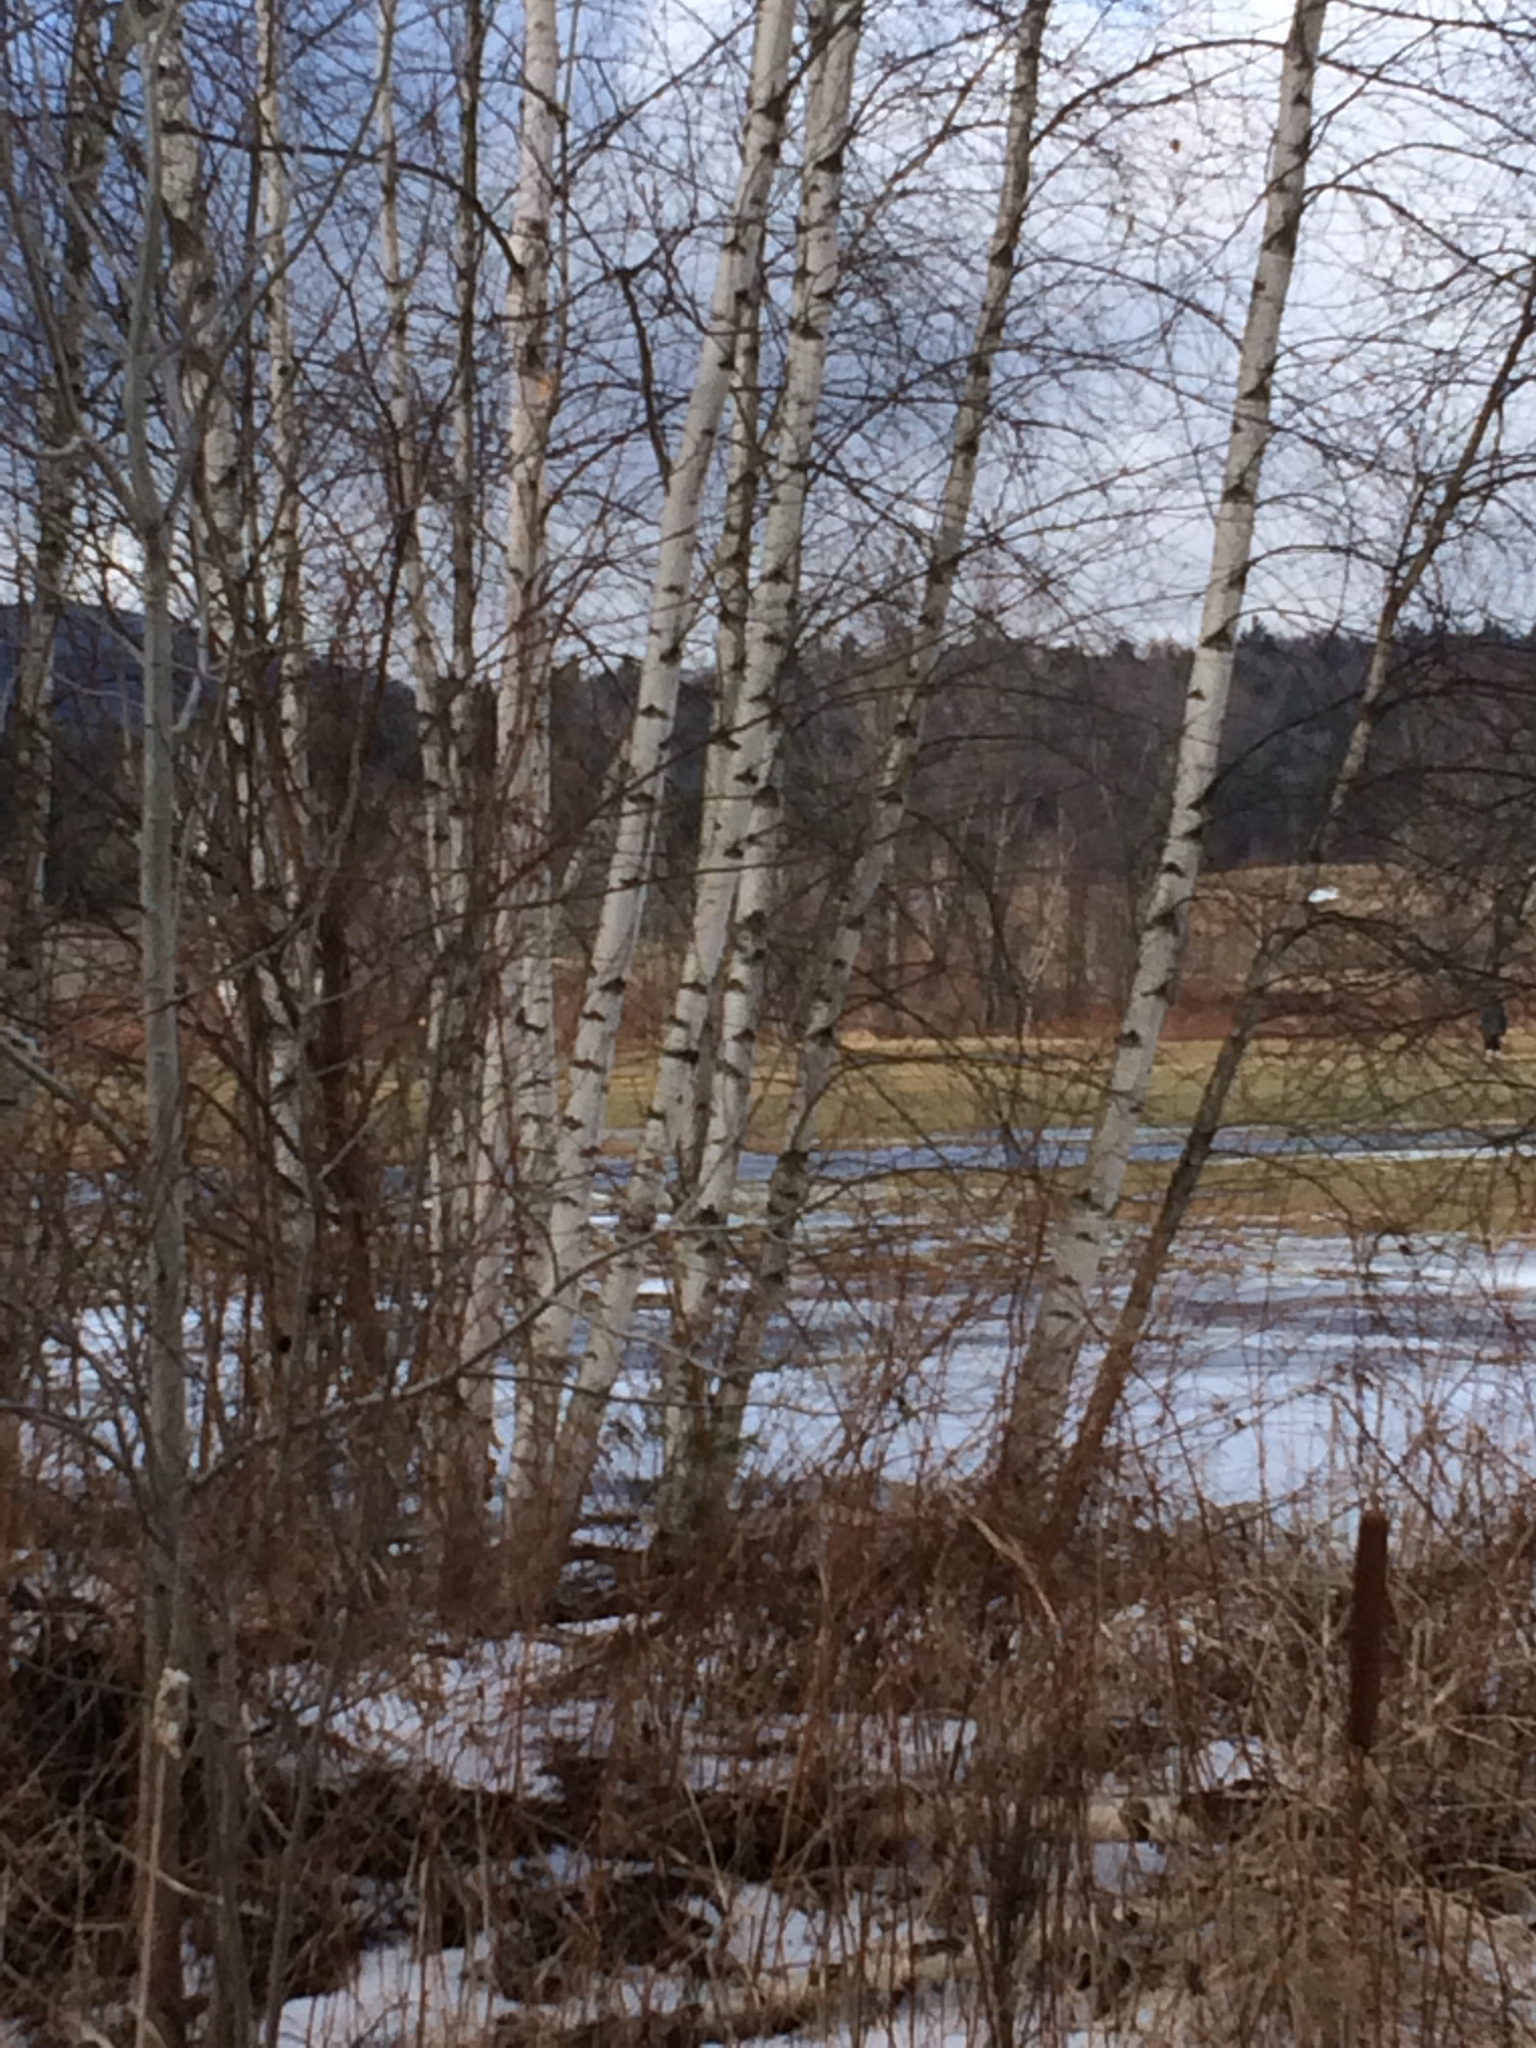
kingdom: Plantae
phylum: Tracheophyta
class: Magnoliopsida
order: Fagales
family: Betulaceae
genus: Betula
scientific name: Betula populifolia
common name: Fire birch
